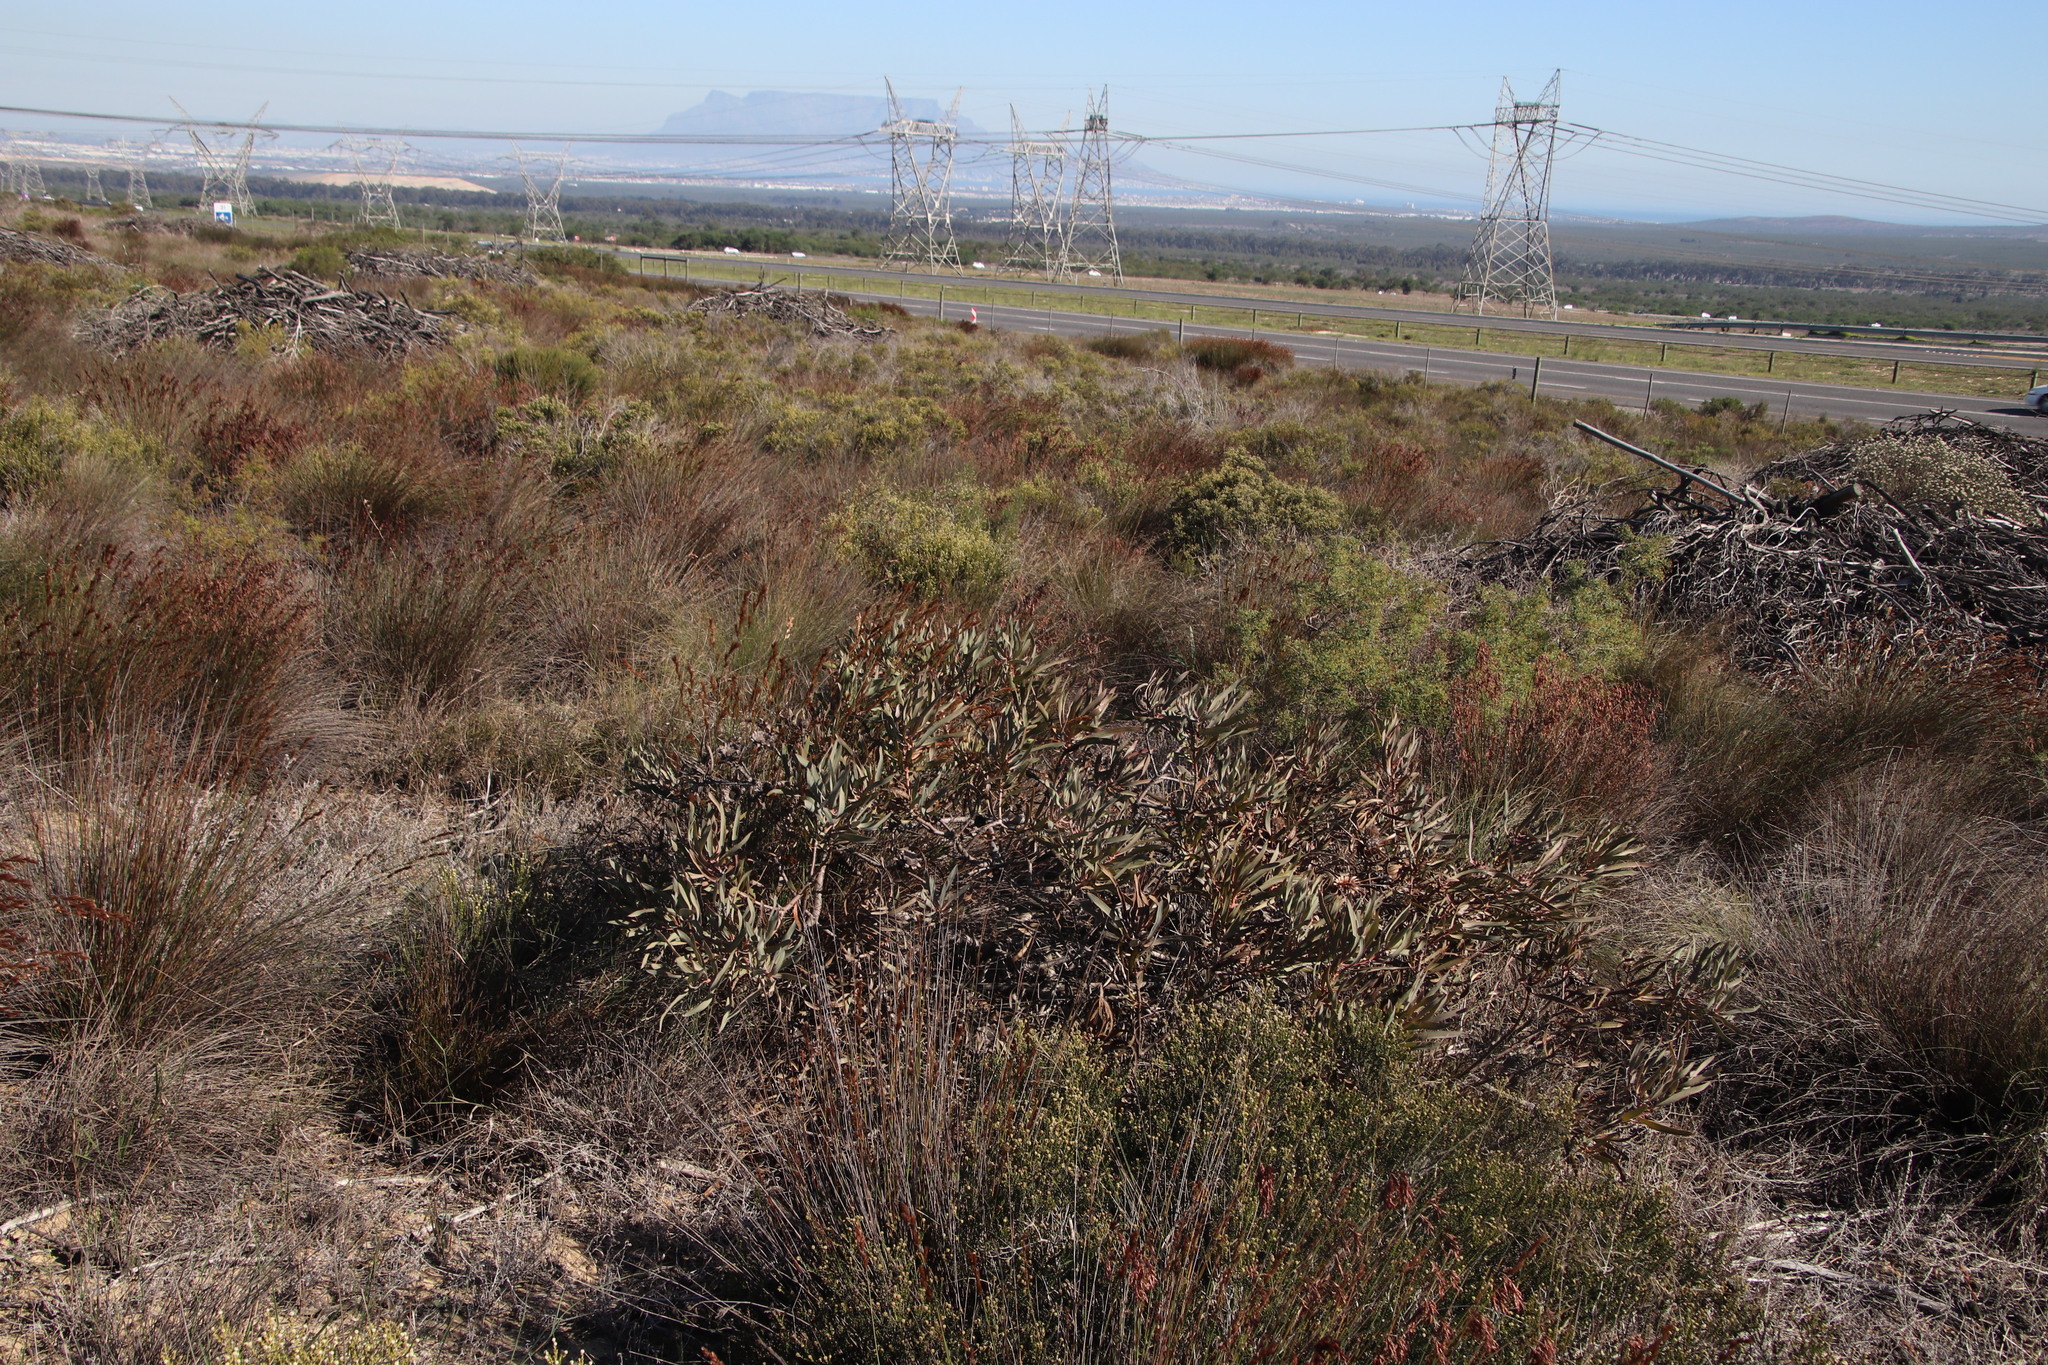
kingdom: Plantae
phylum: Tracheophyta
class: Magnoliopsida
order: Proteales
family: Proteaceae
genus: Protea
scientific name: Protea burchellii
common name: Burchell's sugarbush
